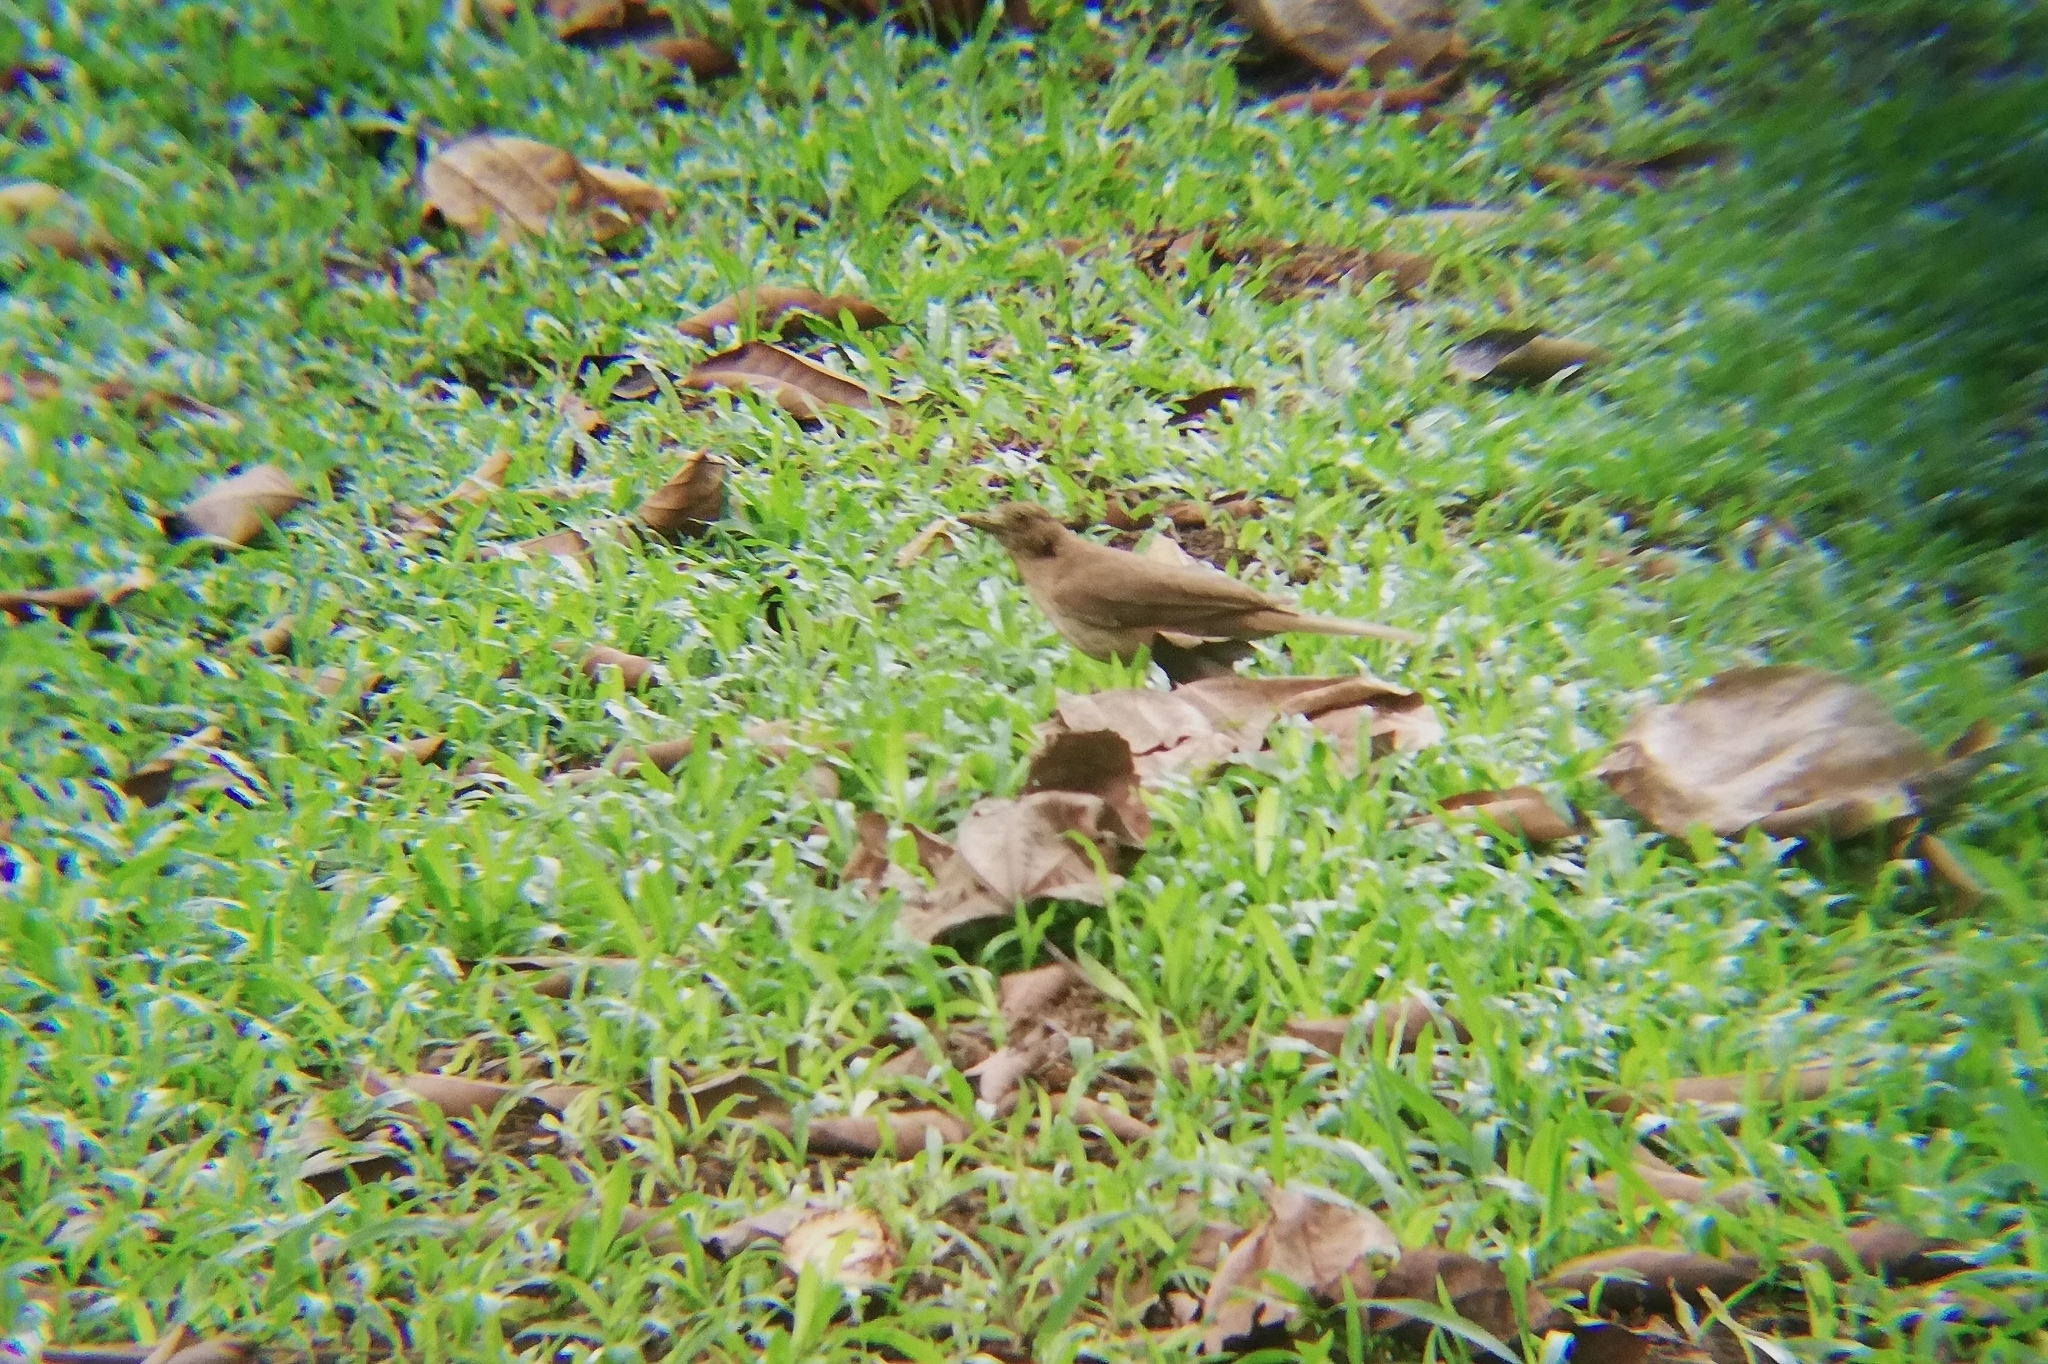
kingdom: Animalia
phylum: Chordata
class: Aves
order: Passeriformes
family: Turdidae
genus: Turdus
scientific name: Turdus grayi
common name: Clay-colored thrush
